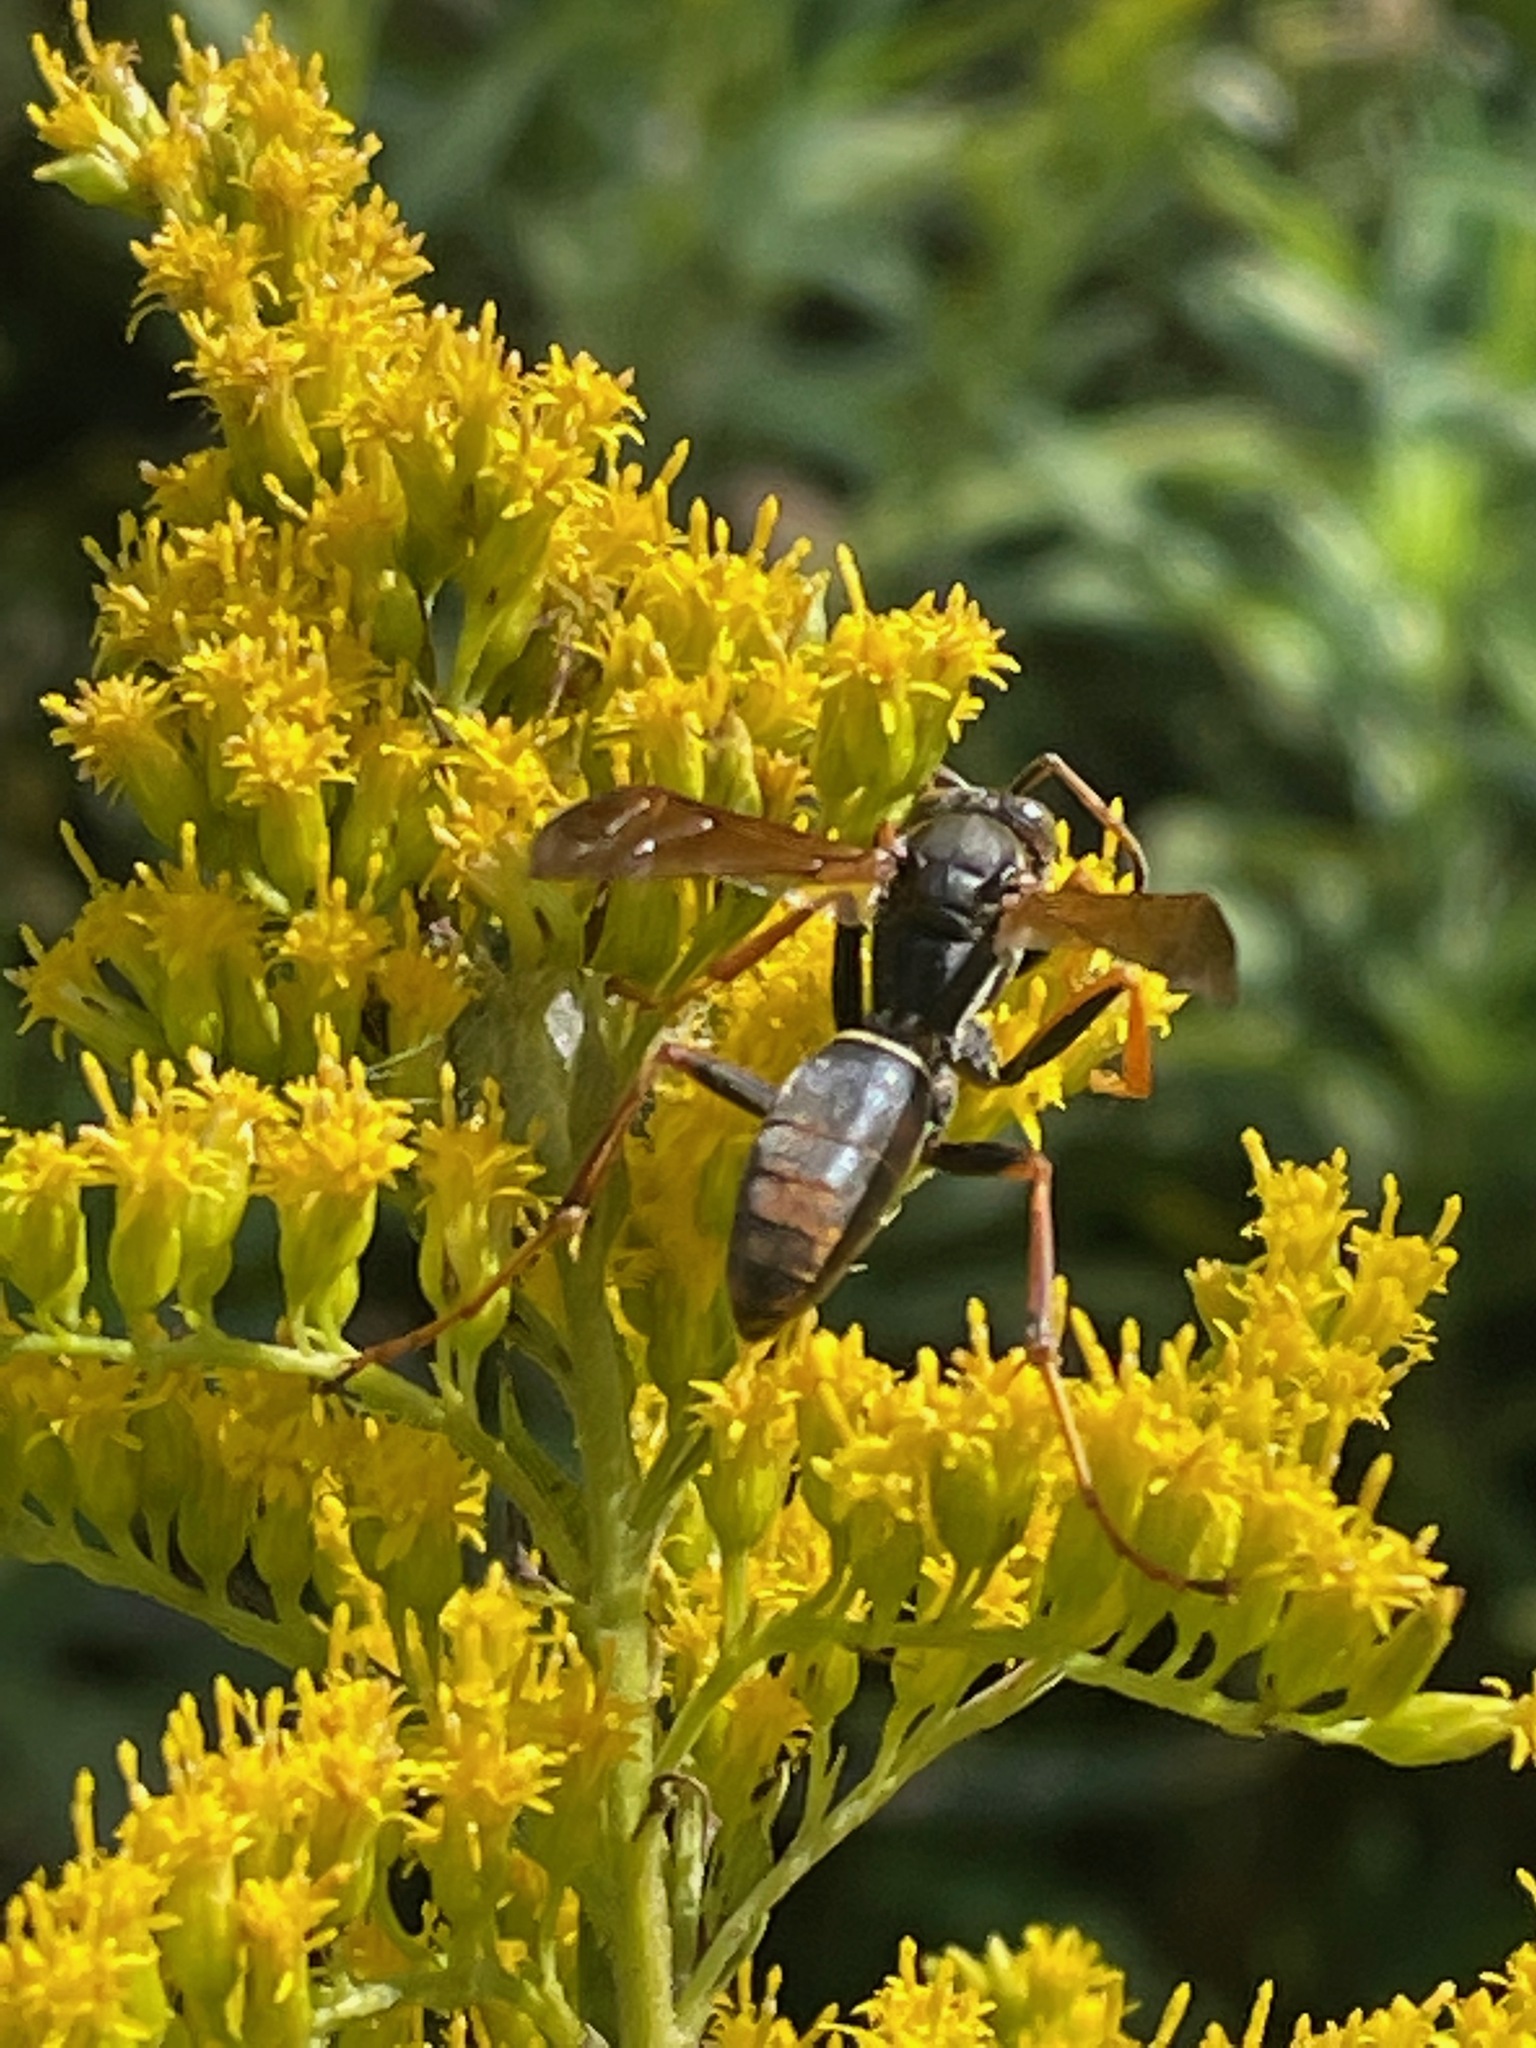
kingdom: Animalia
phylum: Arthropoda
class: Insecta
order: Hymenoptera
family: Eumenidae
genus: Polistes
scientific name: Polistes fuscatus
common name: Dark paper wasp
